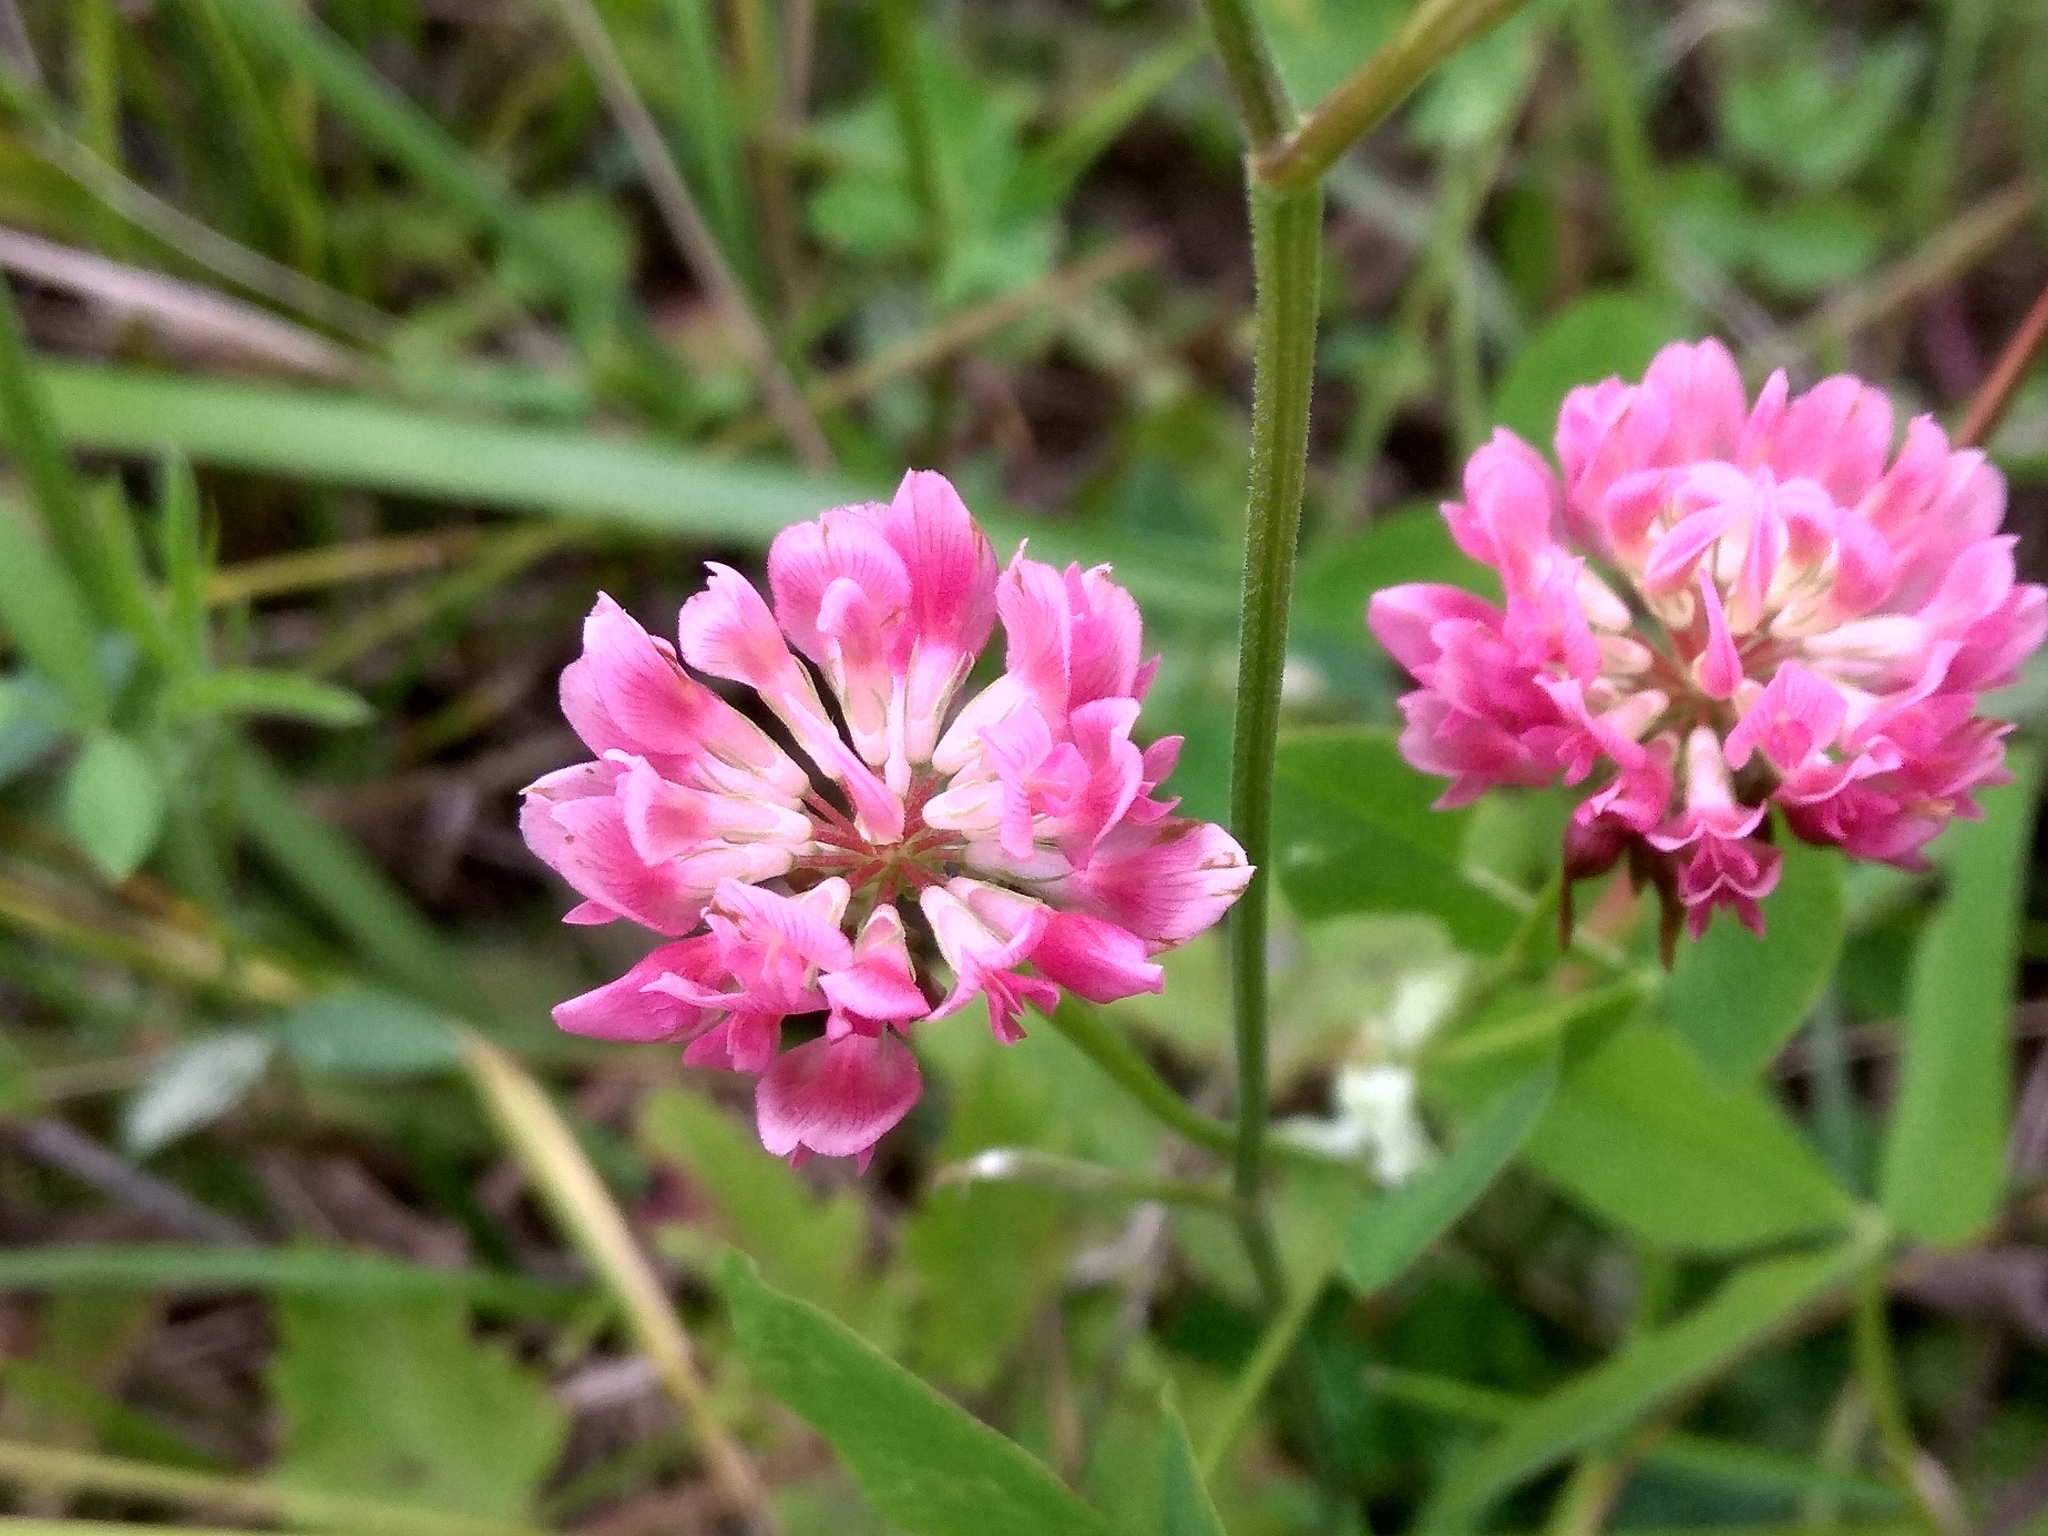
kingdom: Plantae
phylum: Tracheophyta
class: Magnoliopsida
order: Fabales
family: Fabaceae
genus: Trifolium
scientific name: Trifolium hybridum
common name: Alsike clover
